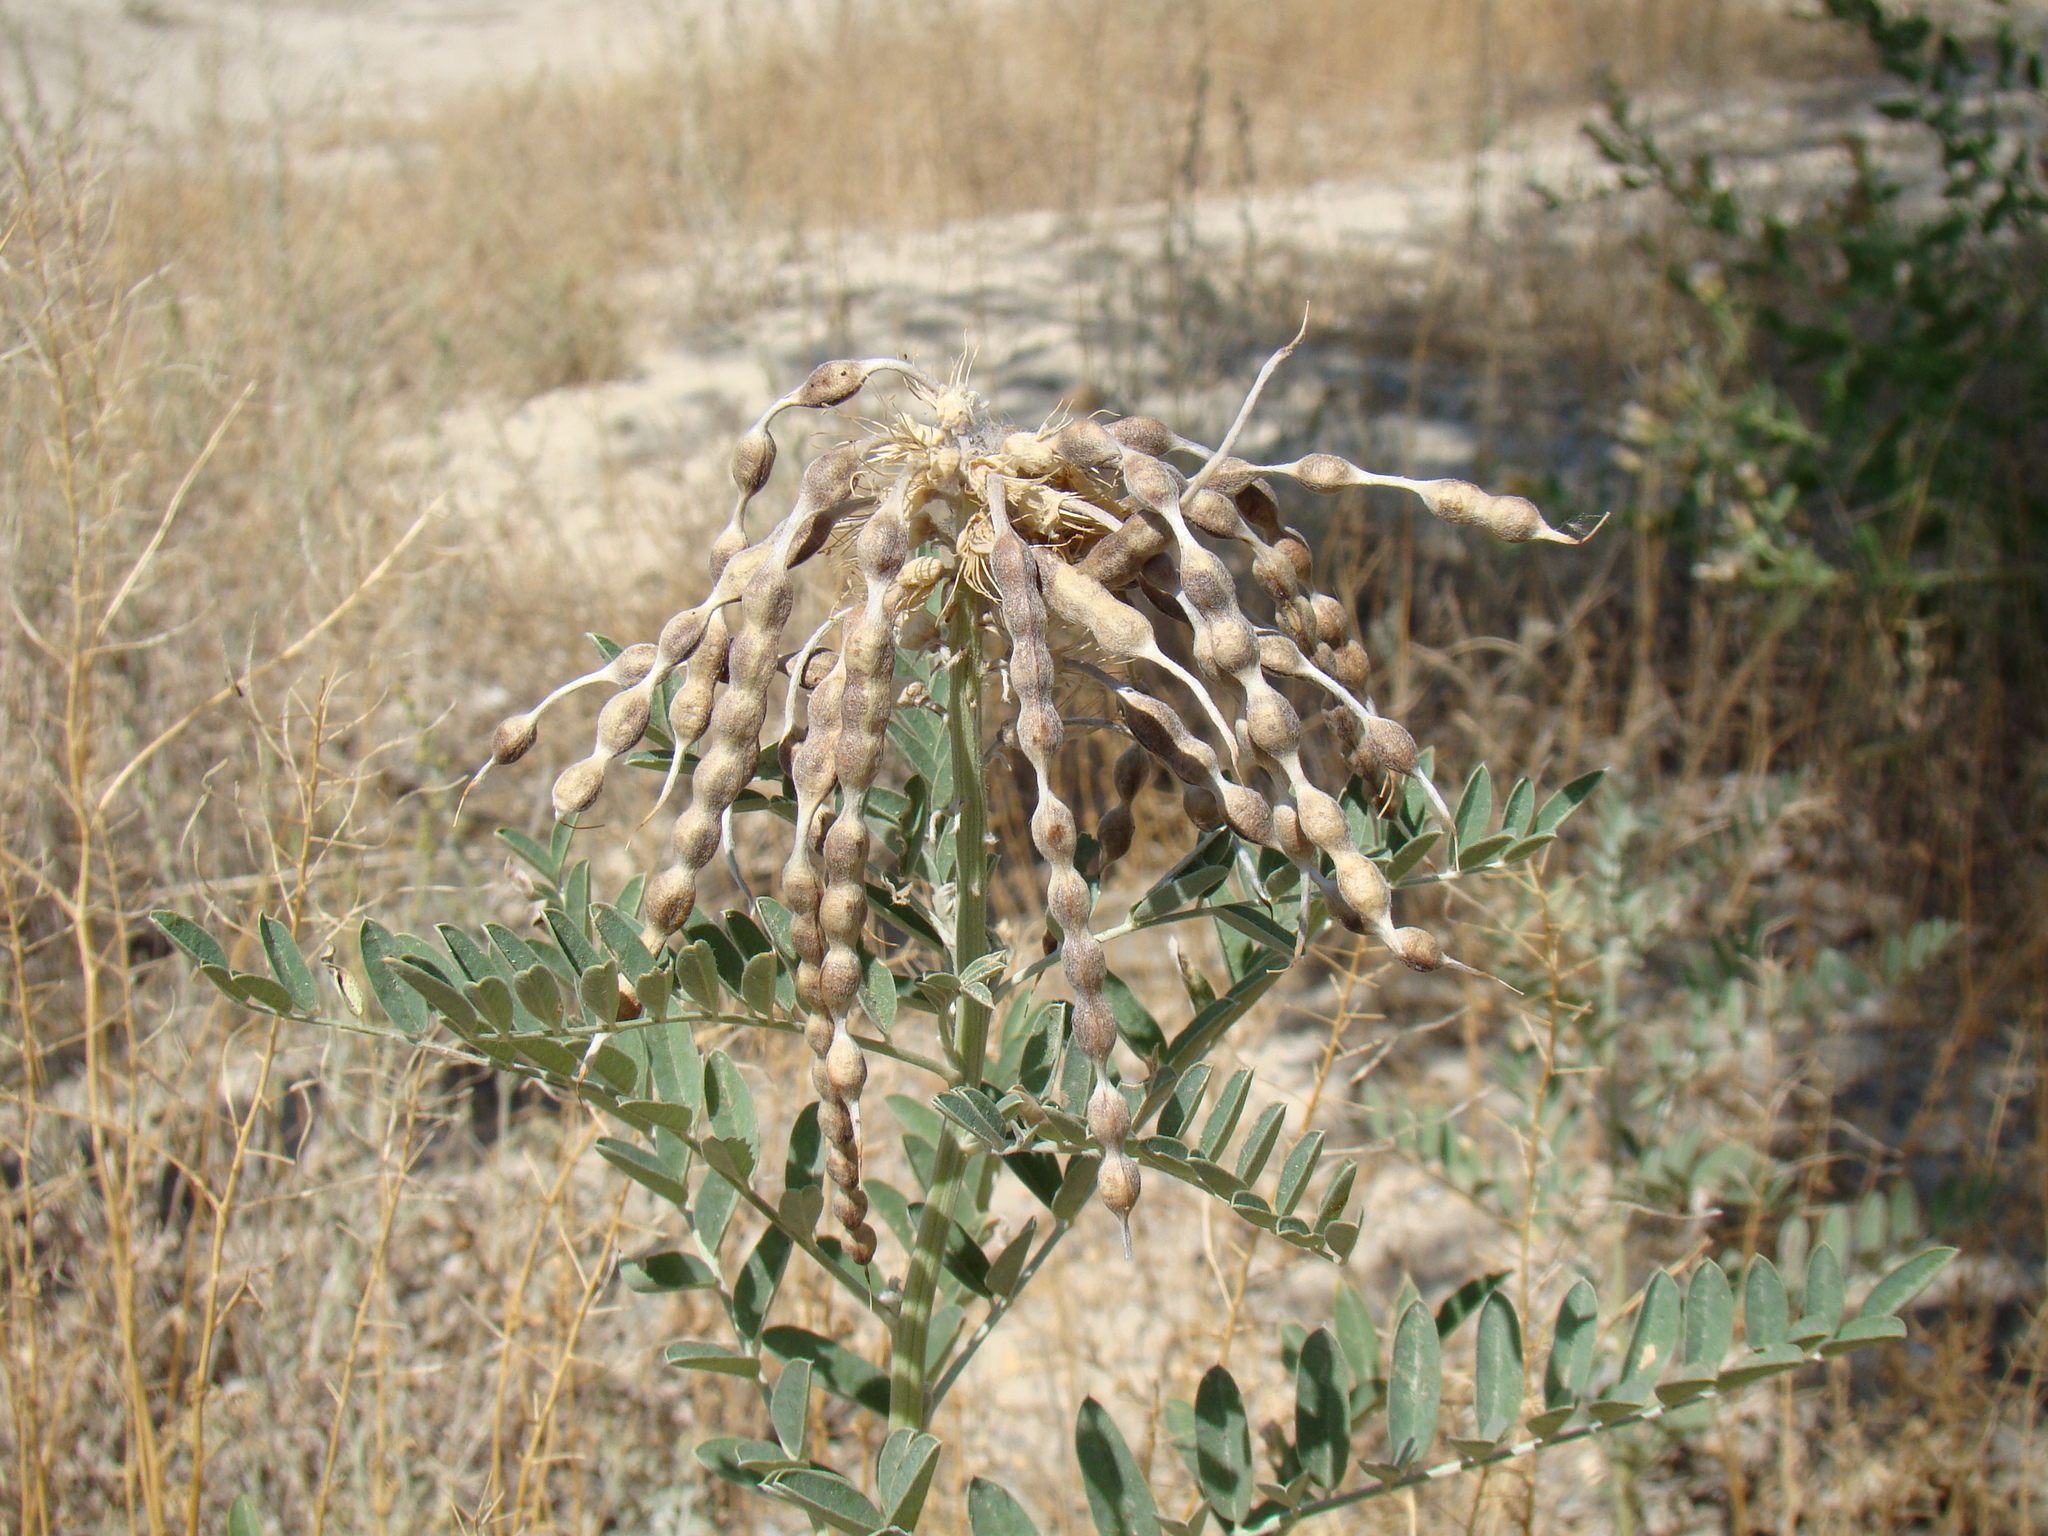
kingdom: Plantae
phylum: Tracheophyta
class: Magnoliopsida
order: Fabales
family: Fabaceae
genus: Sophora
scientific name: Sophora alopecuroides
